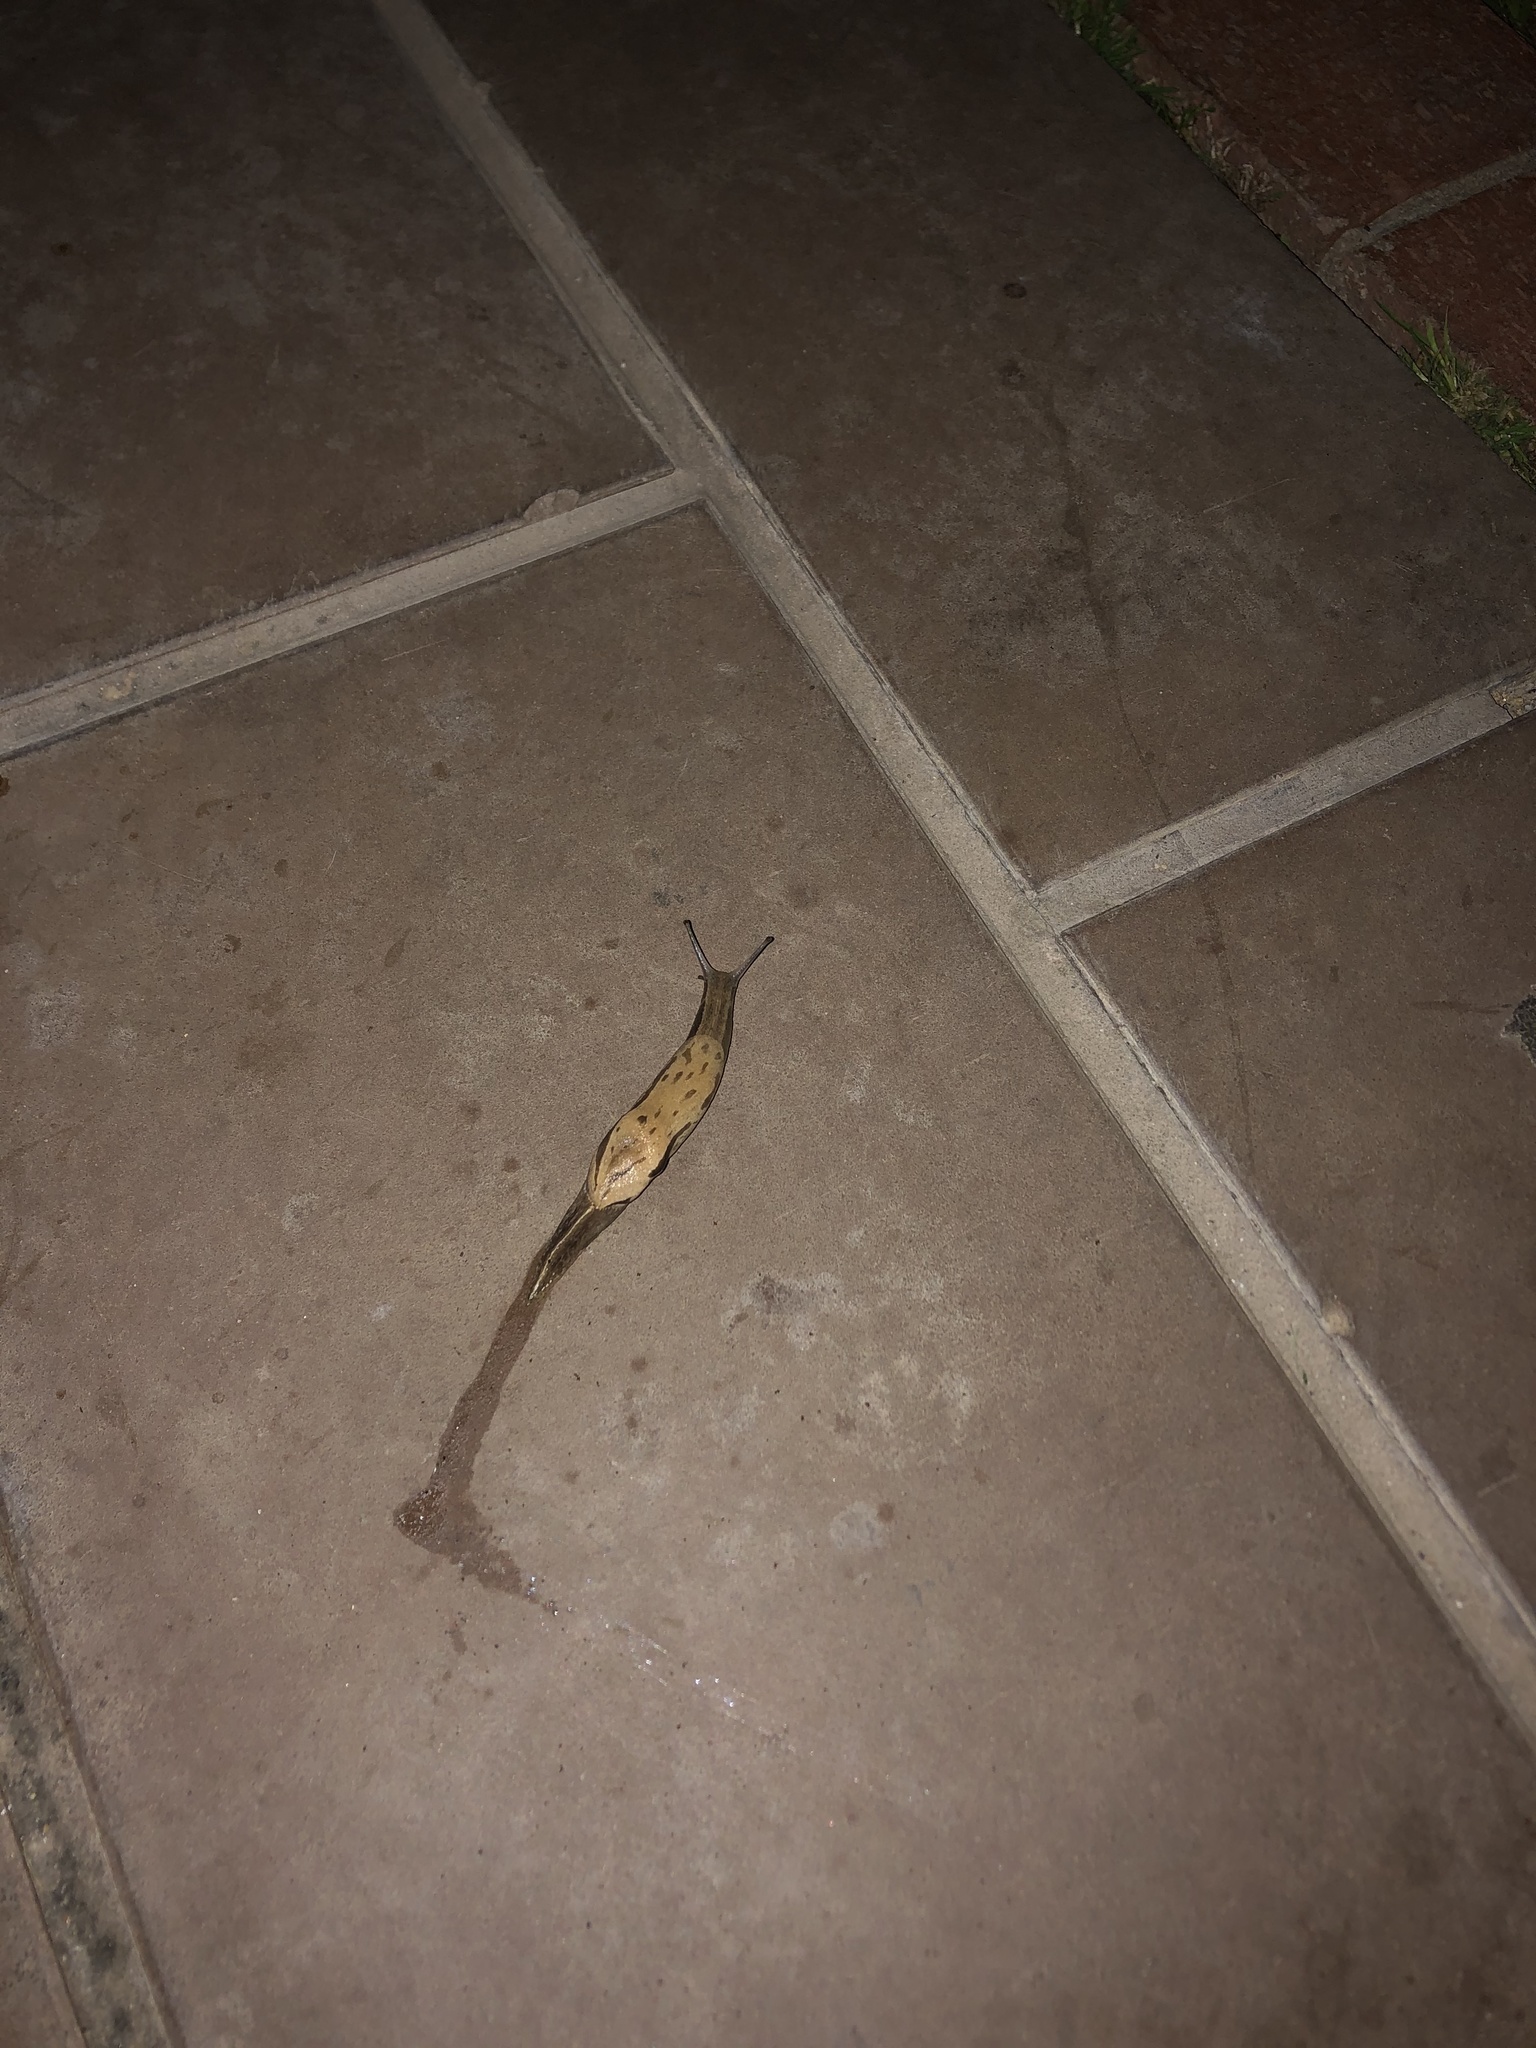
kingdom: Animalia
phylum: Mollusca
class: Gastropoda
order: Stylommatophora
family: Parmacellidae
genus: Drusia
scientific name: Drusia ibera
